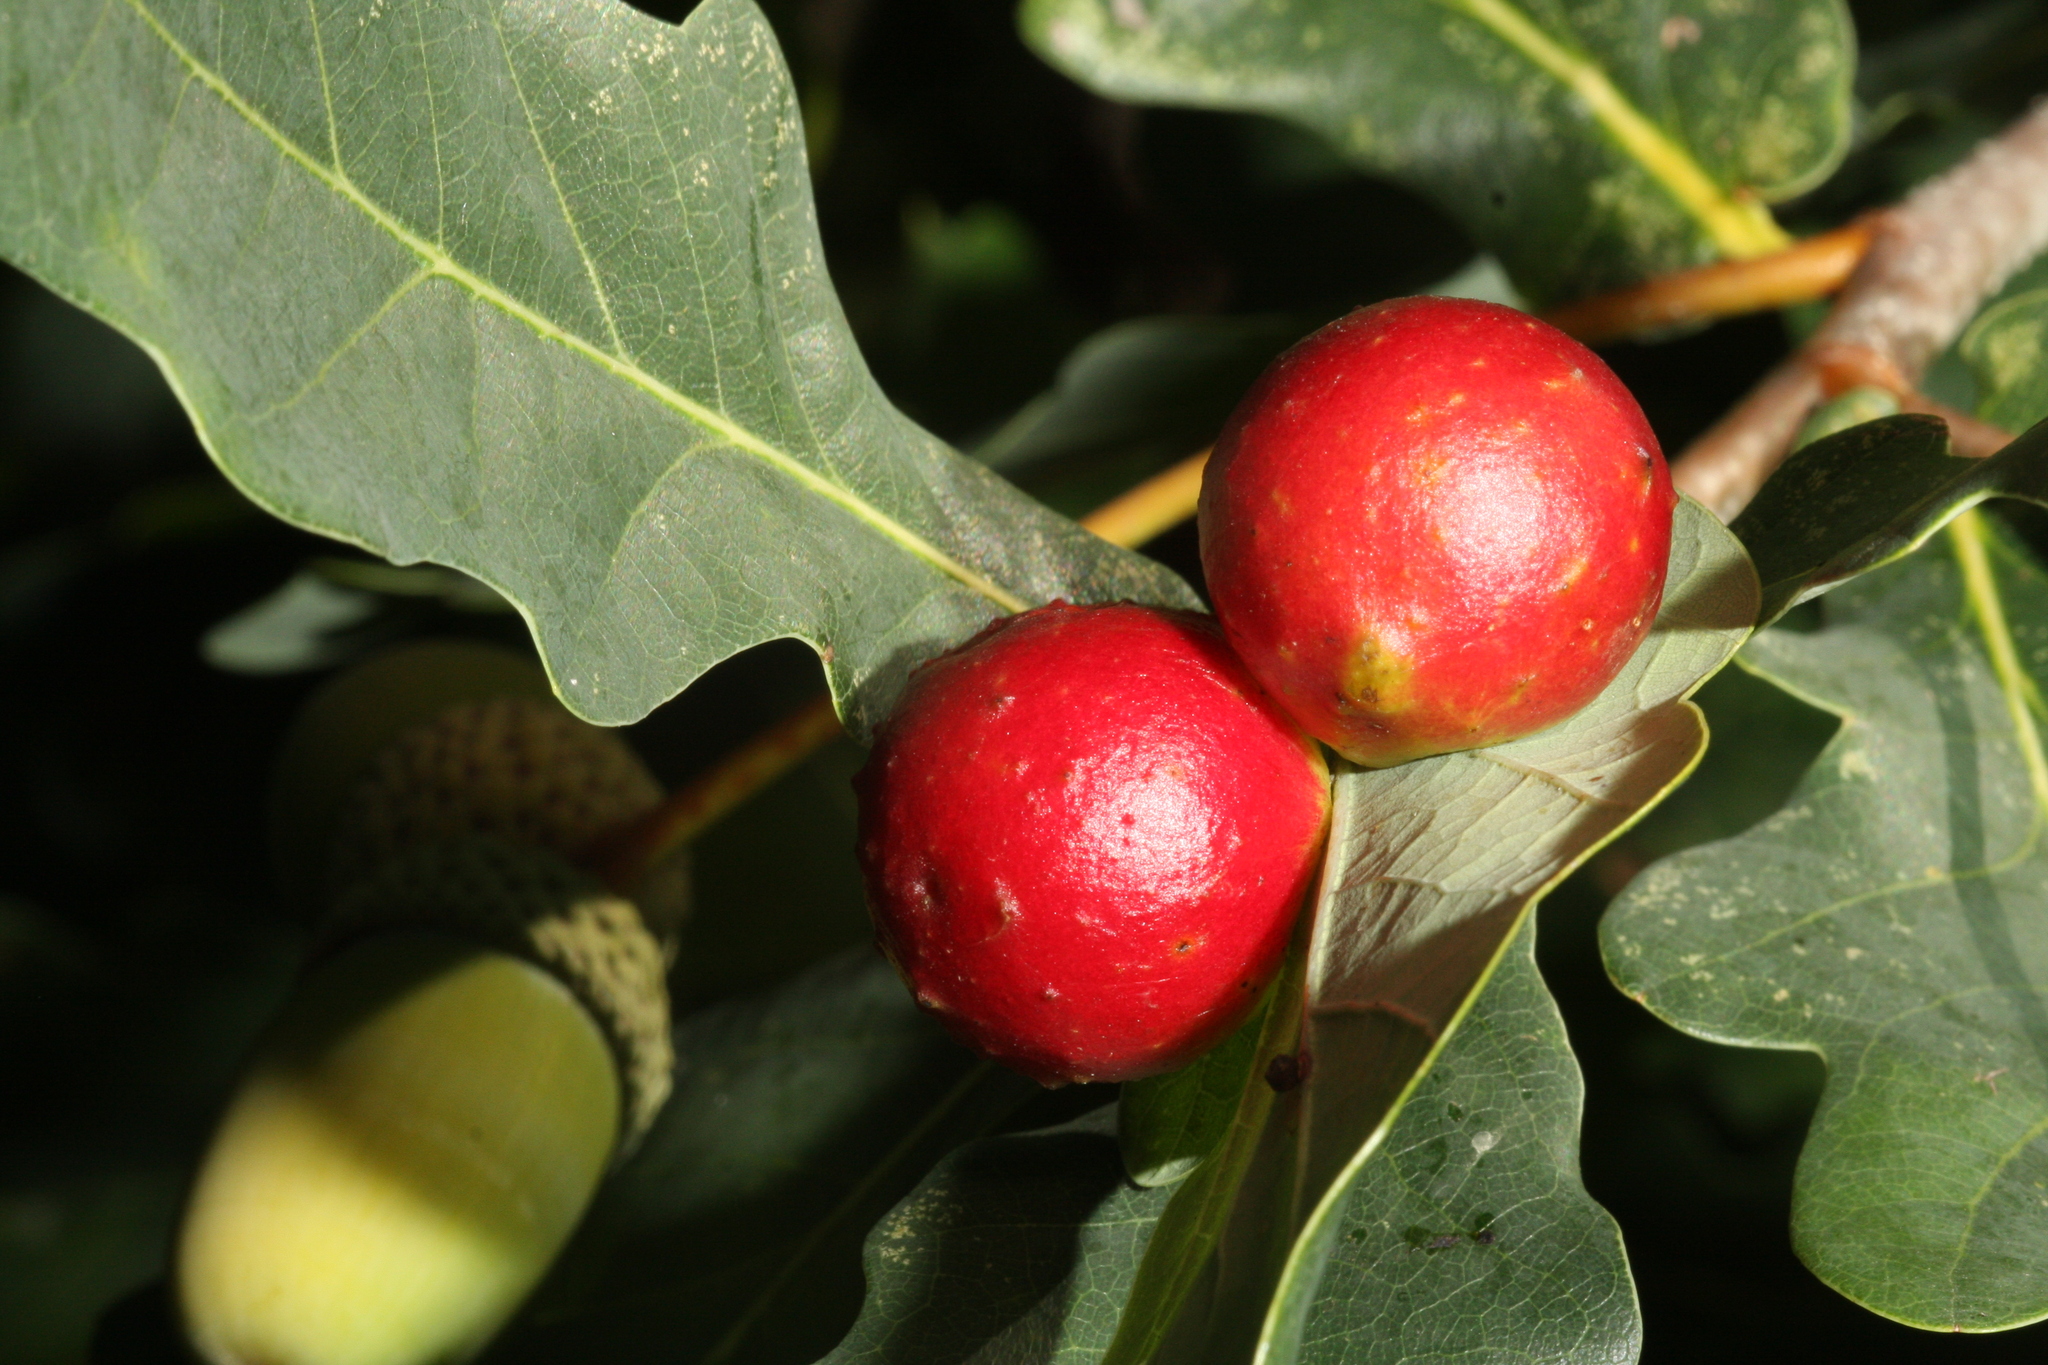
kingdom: Animalia
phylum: Arthropoda
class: Insecta
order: Hymenoptera
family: Cynipidae
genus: Cynips
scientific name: Cynips quercusfolii
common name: Cherry gall
